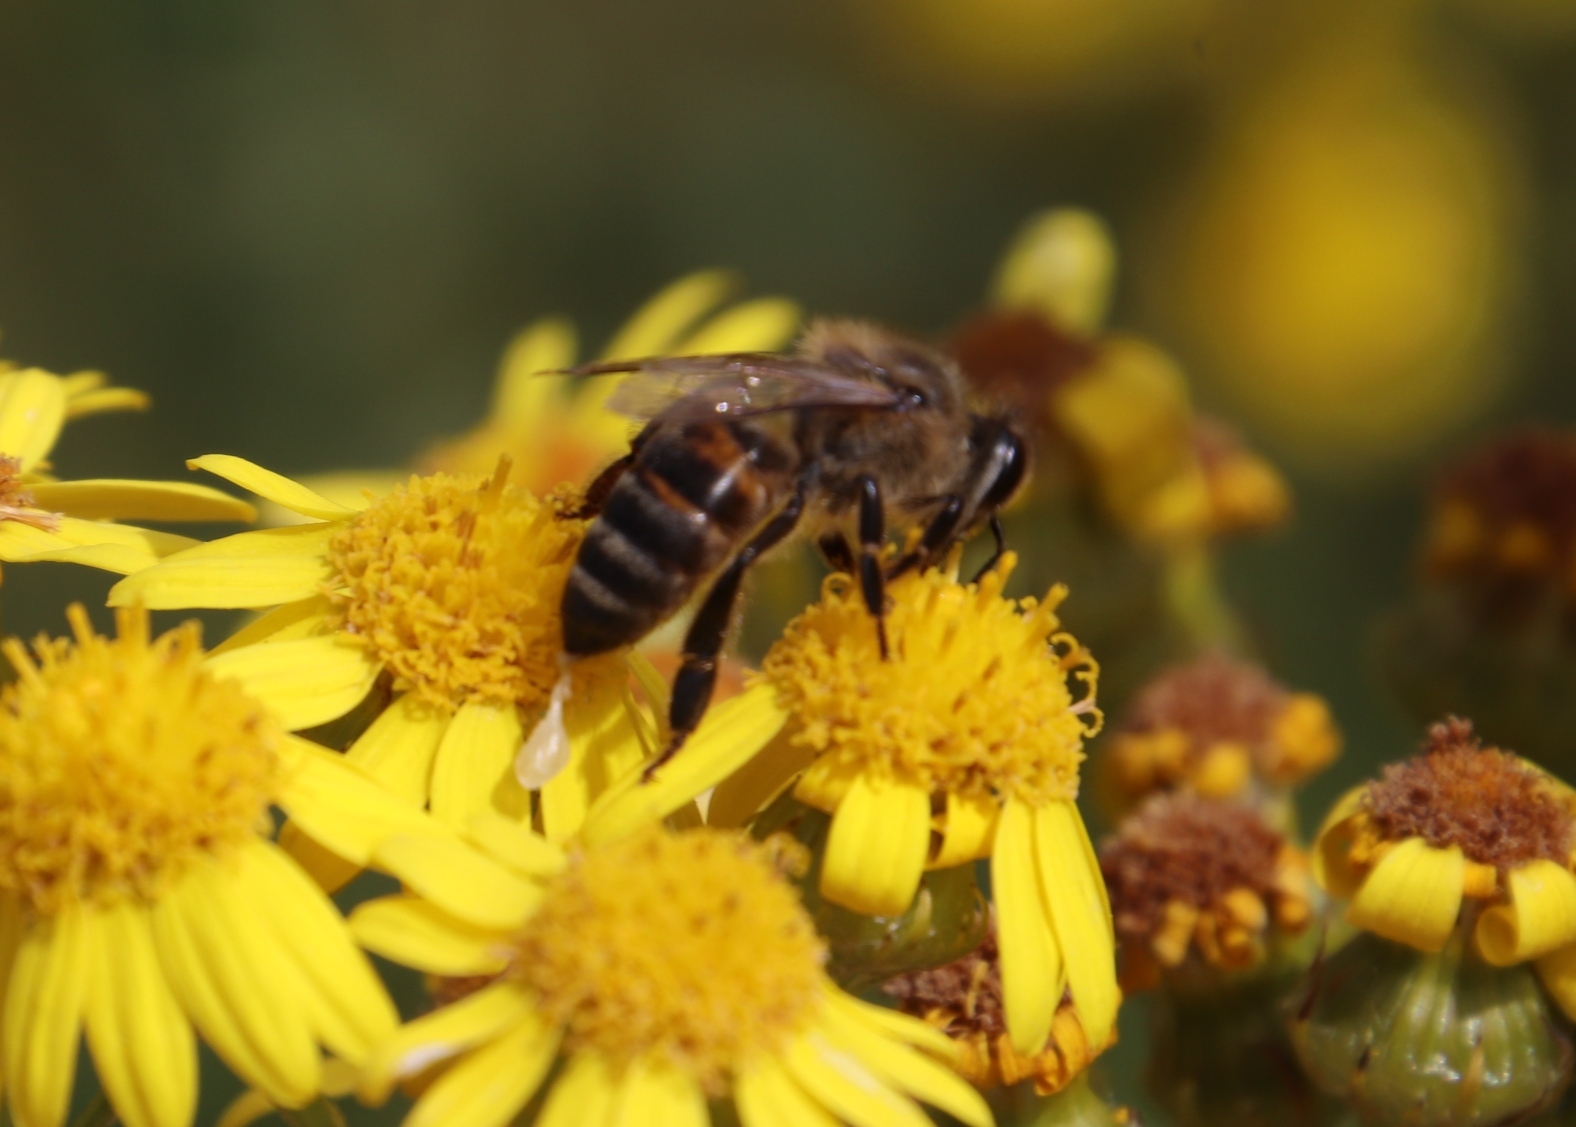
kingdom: Plantae
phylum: Tracheophyta
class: Magnoliopsida
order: Asterales
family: Asteraceae
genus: Senecio
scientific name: Senecio pterophorus
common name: Shoddy ragwort
